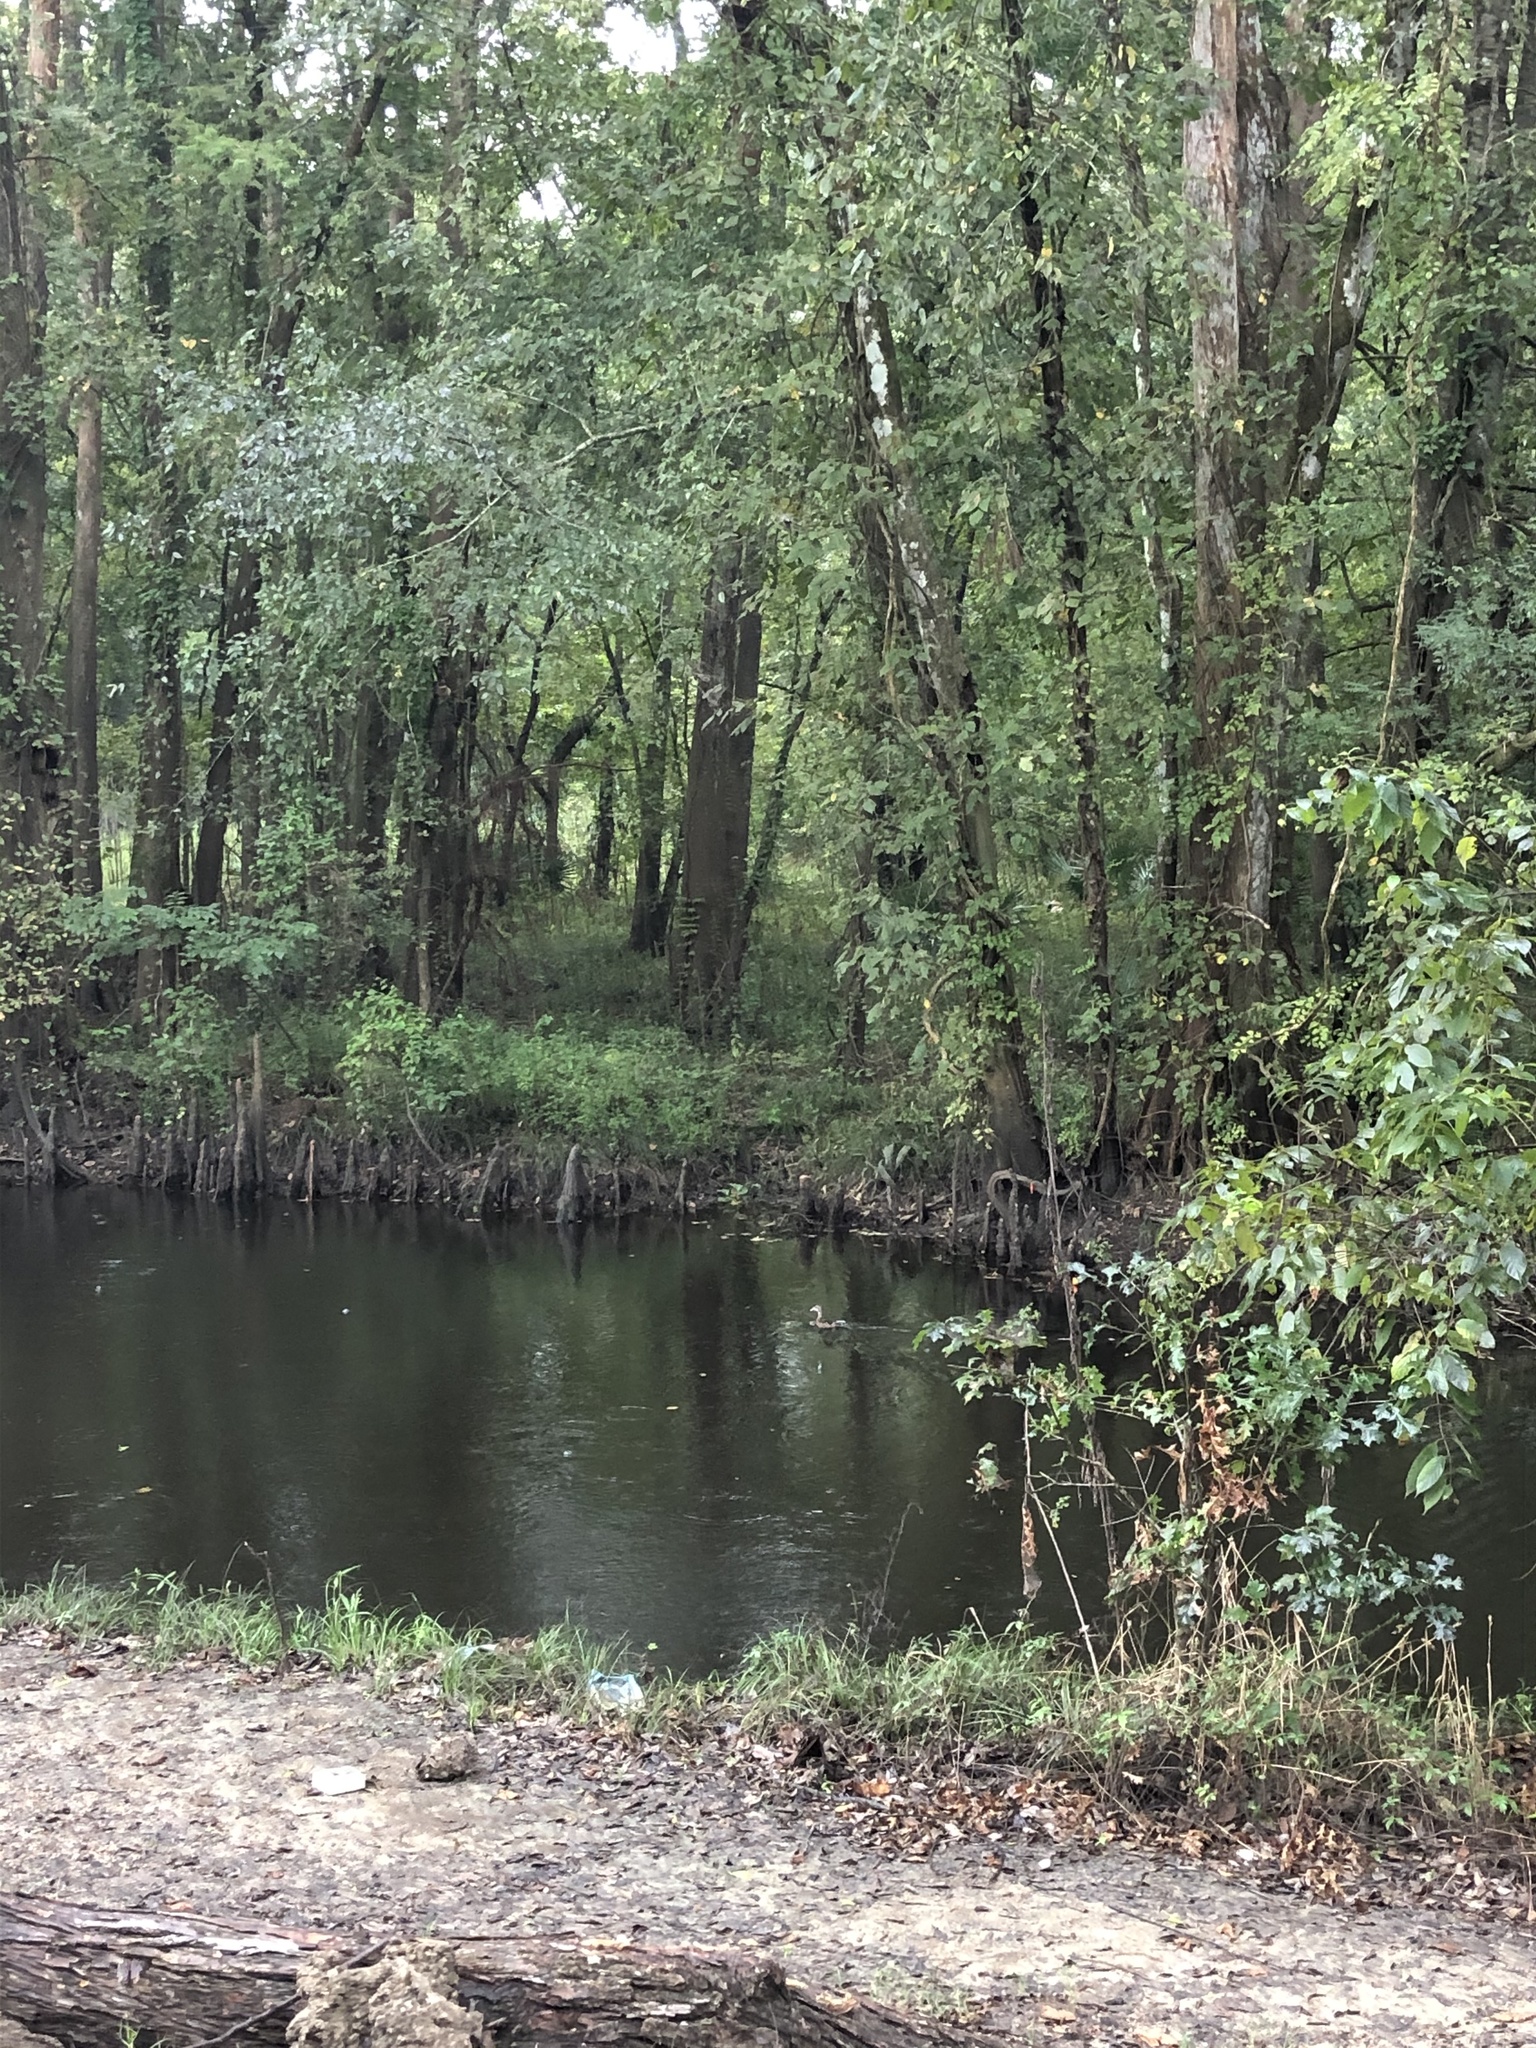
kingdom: Animalia
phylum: Chordata
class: Aves
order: Anseriformes
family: Anatidae
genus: Aix
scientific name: Aix sponsa
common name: Wood duck
